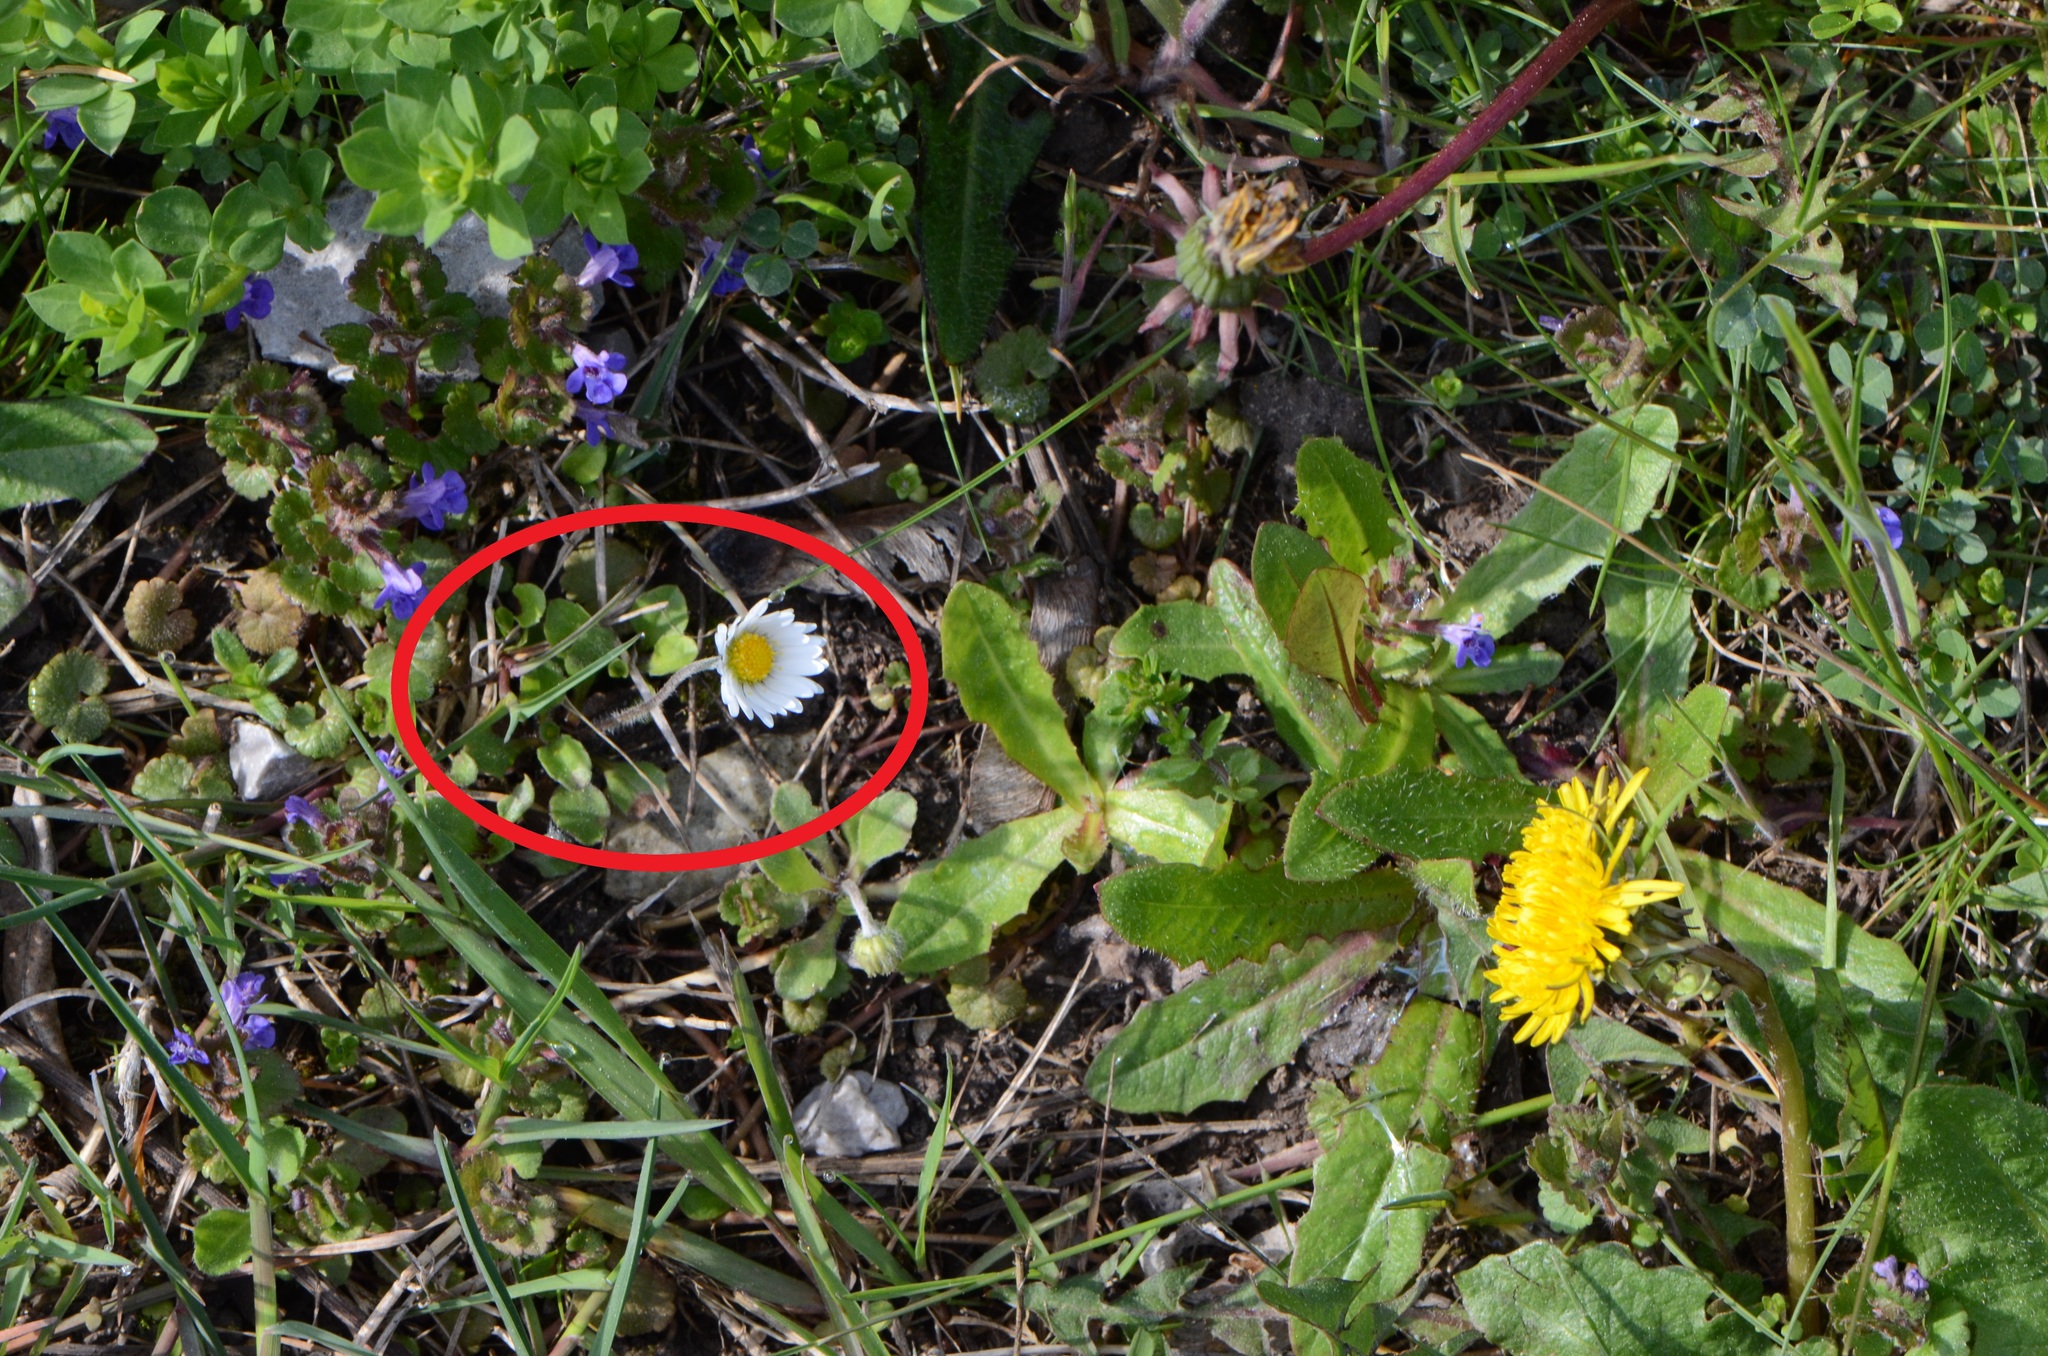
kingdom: Plantae
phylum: Tracheophyta
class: Magnoliopsida
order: Asterales
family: Asteraceae
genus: Bellis
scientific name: Bellis perennis
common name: Lawndaisy
